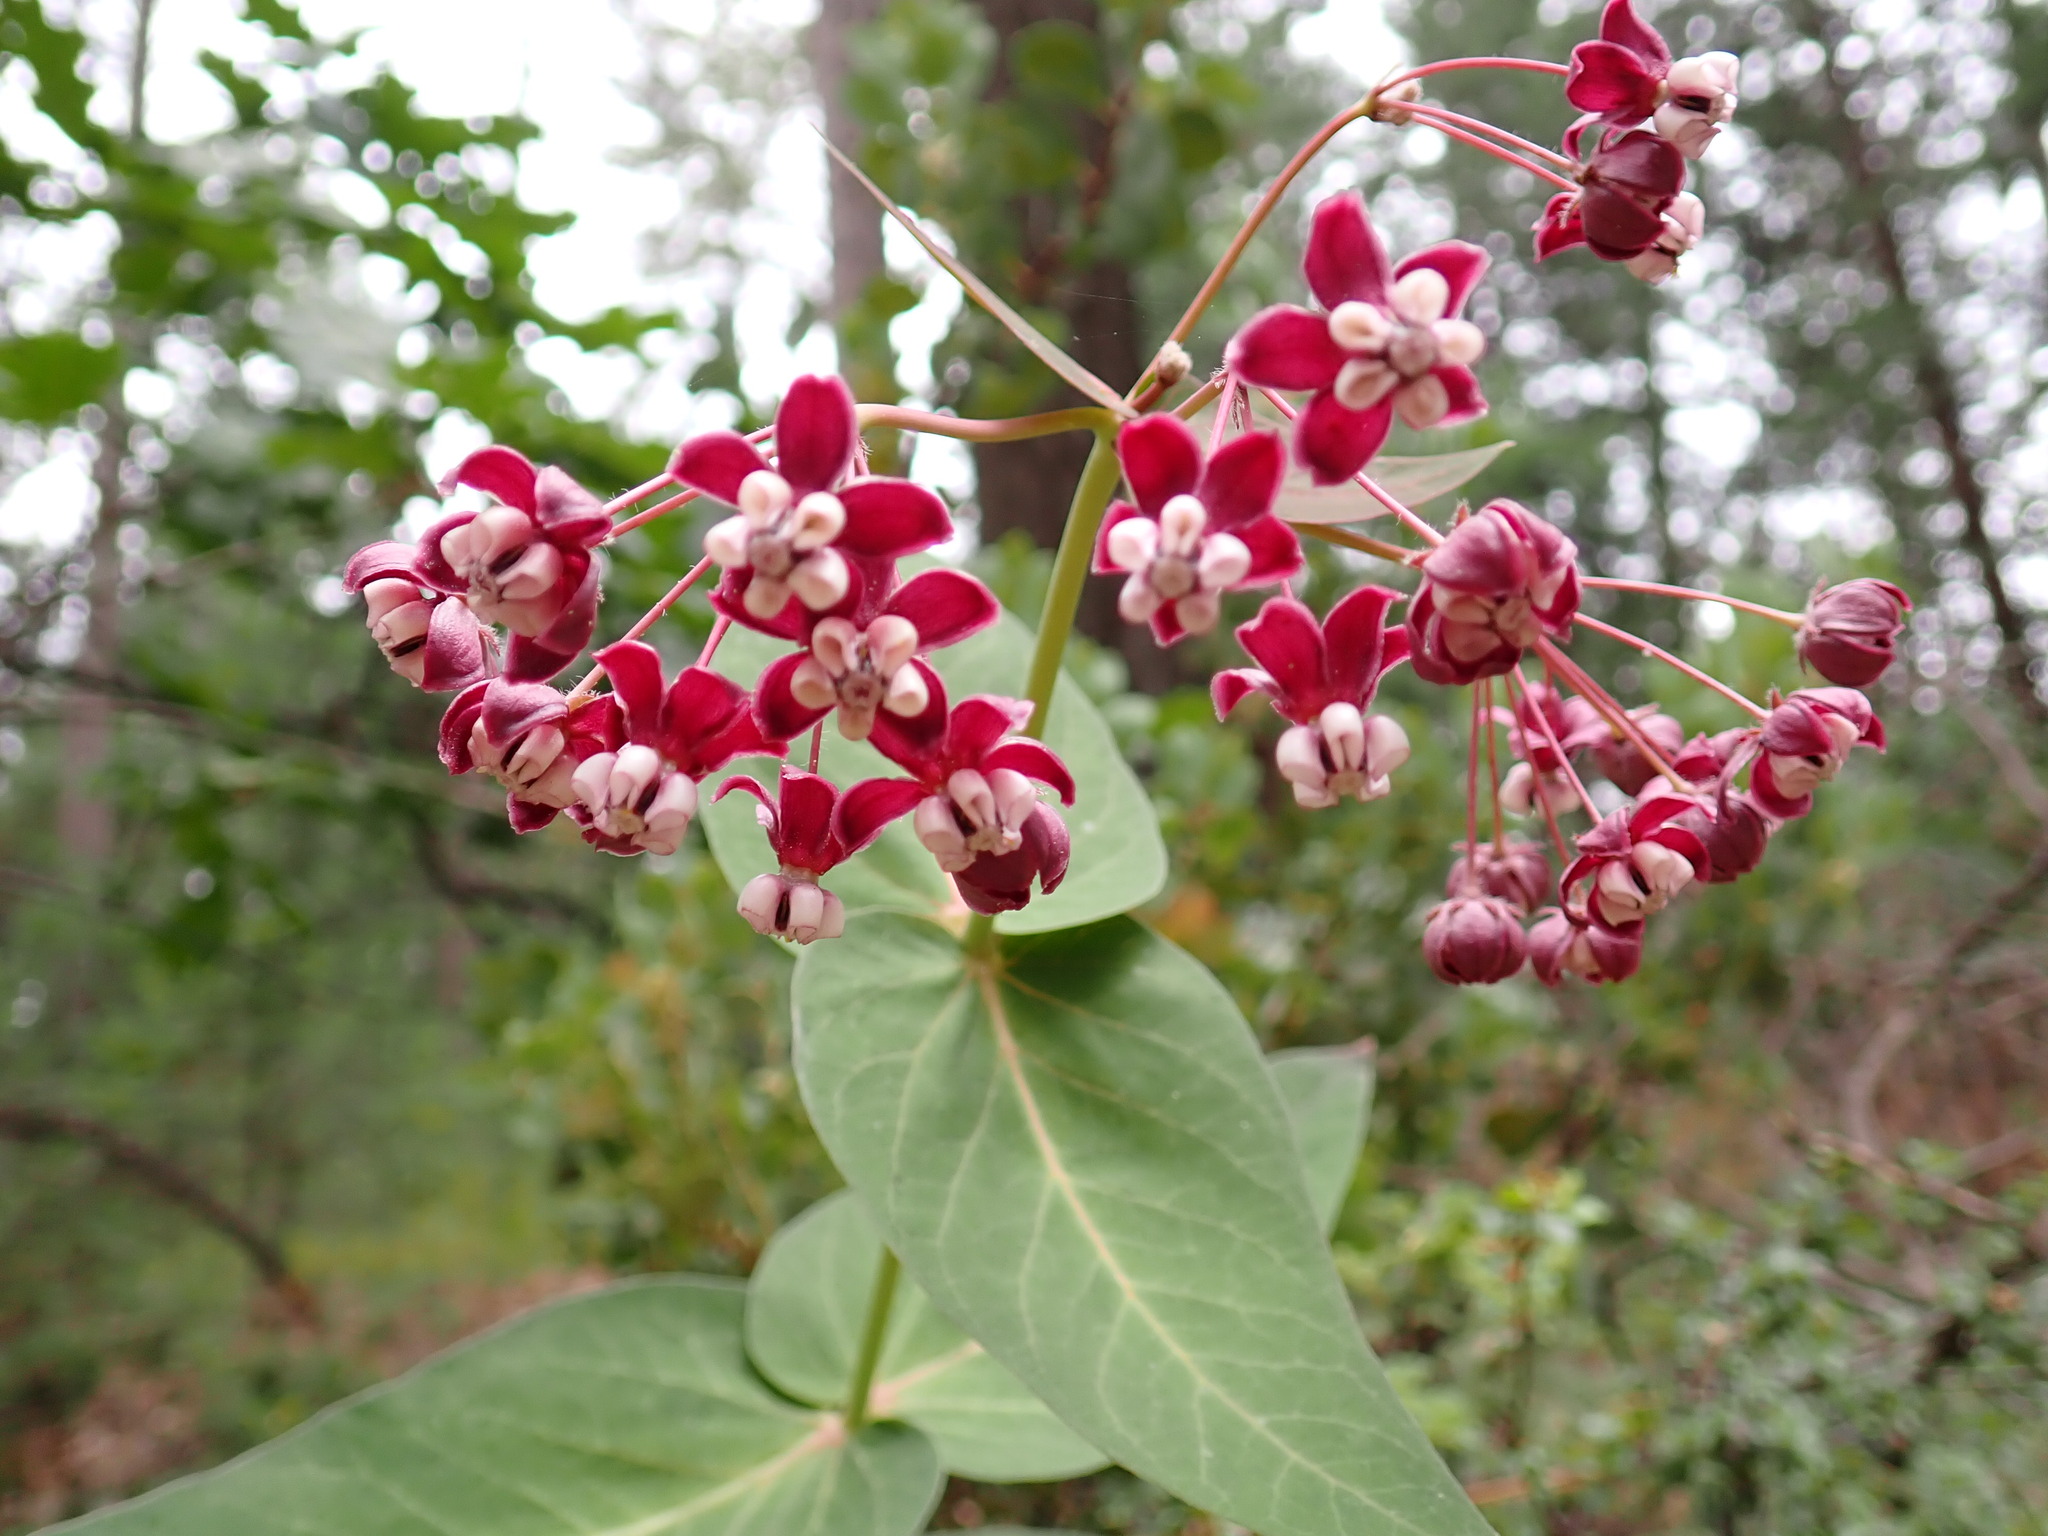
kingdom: Plantae
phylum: Tracheophyta
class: Magnoliopsida
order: Gentianales
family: Apocynaceae
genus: Asclepias
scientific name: Asclepias cordifolia
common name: Purple milkweed
